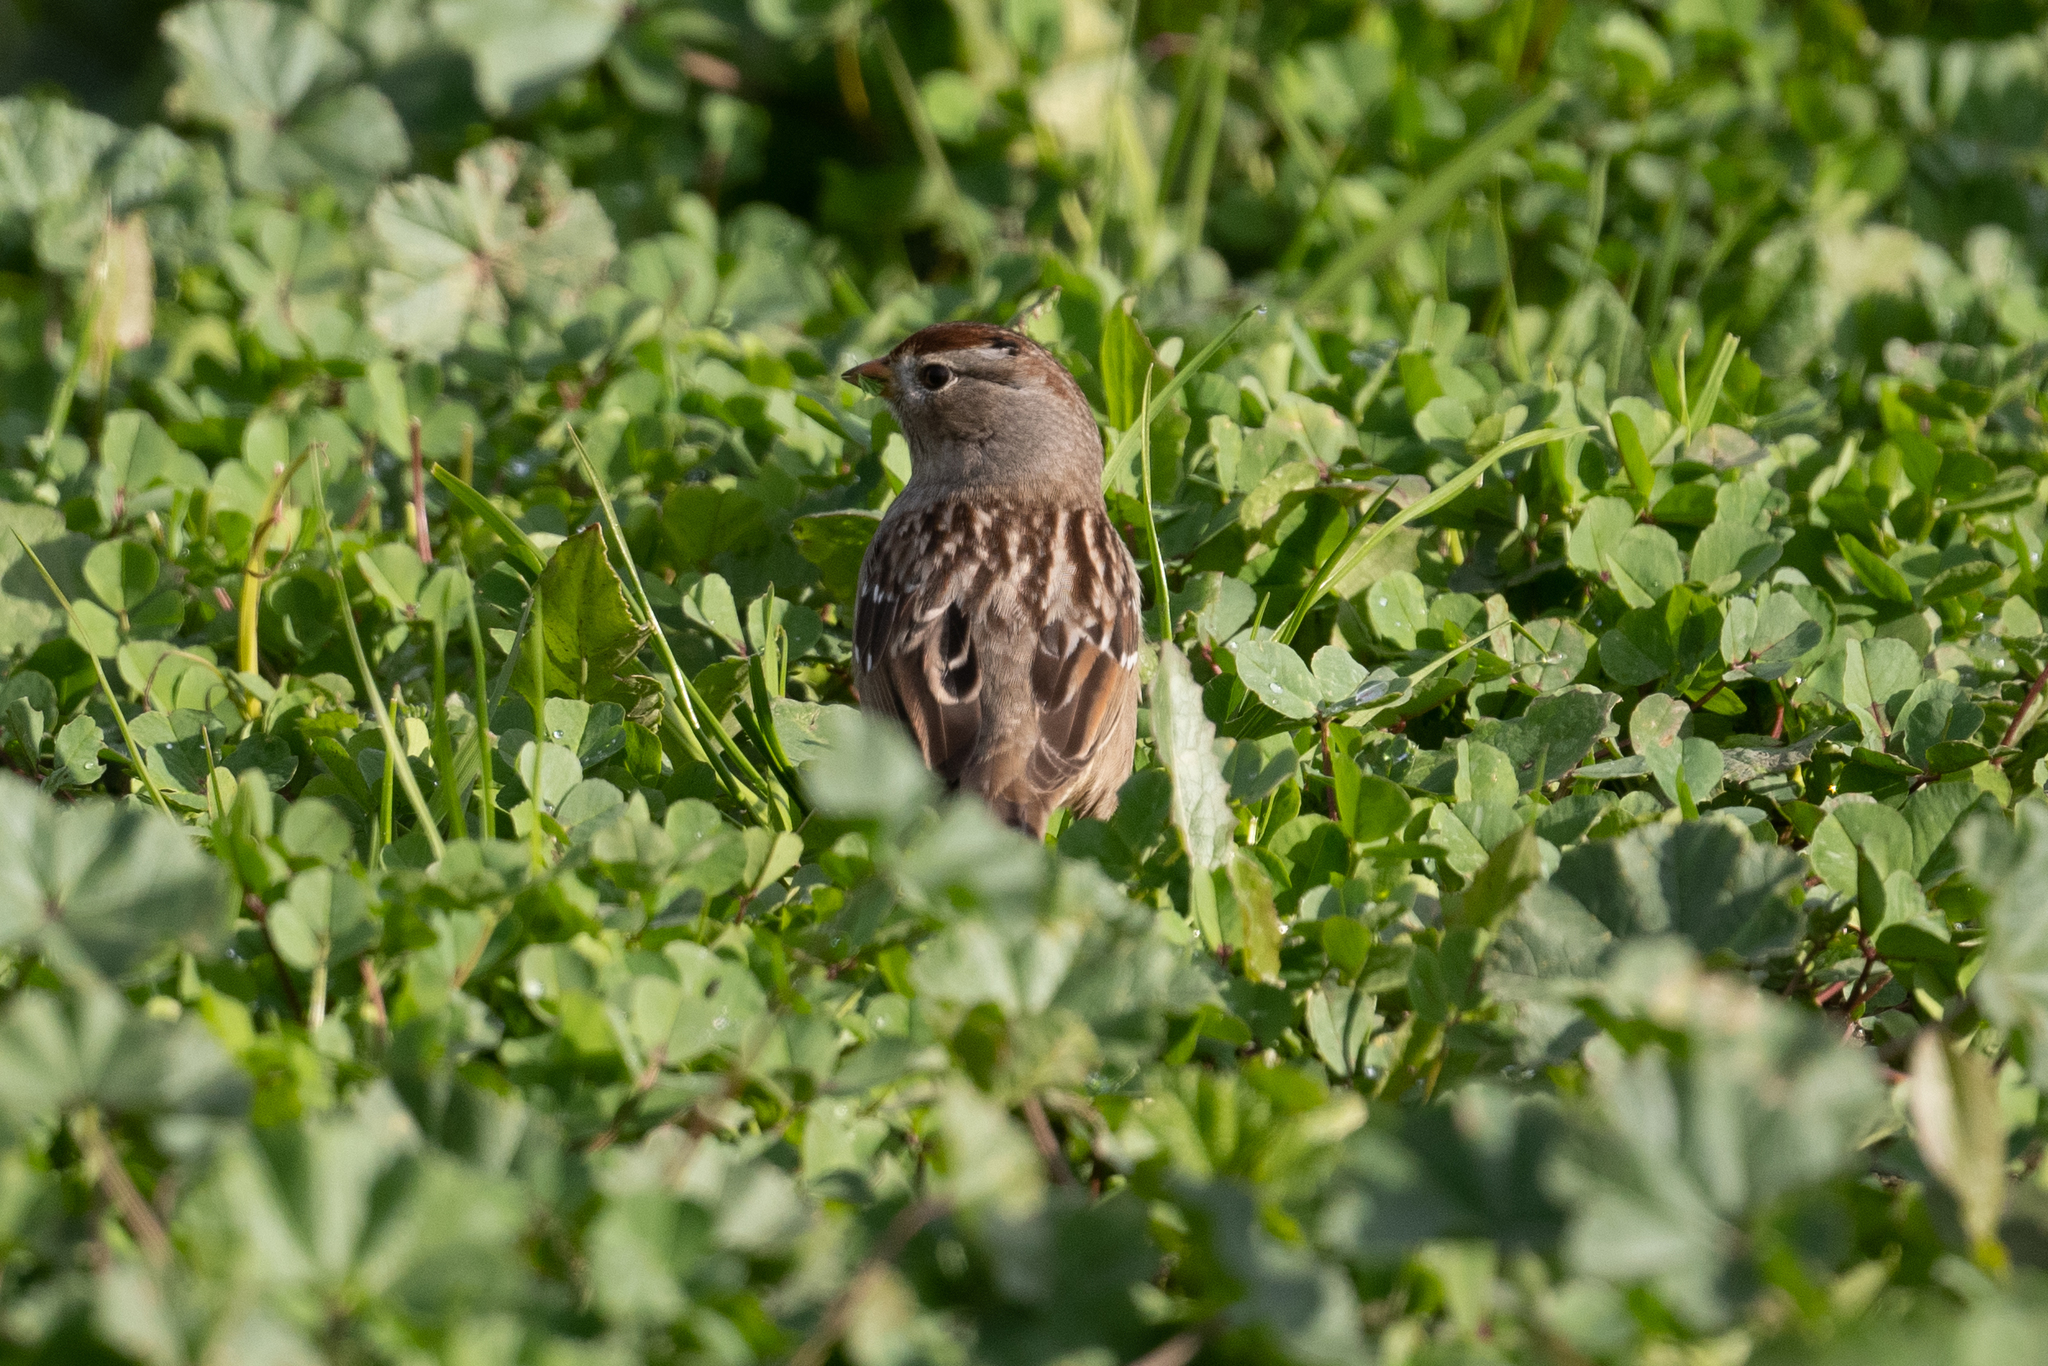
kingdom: Animalia
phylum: Chordata
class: Aves
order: Passeriformes
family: Passerellidae
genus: Zonotrichia
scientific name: Zonotrichia leucophrys
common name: White-crowned sparrow
